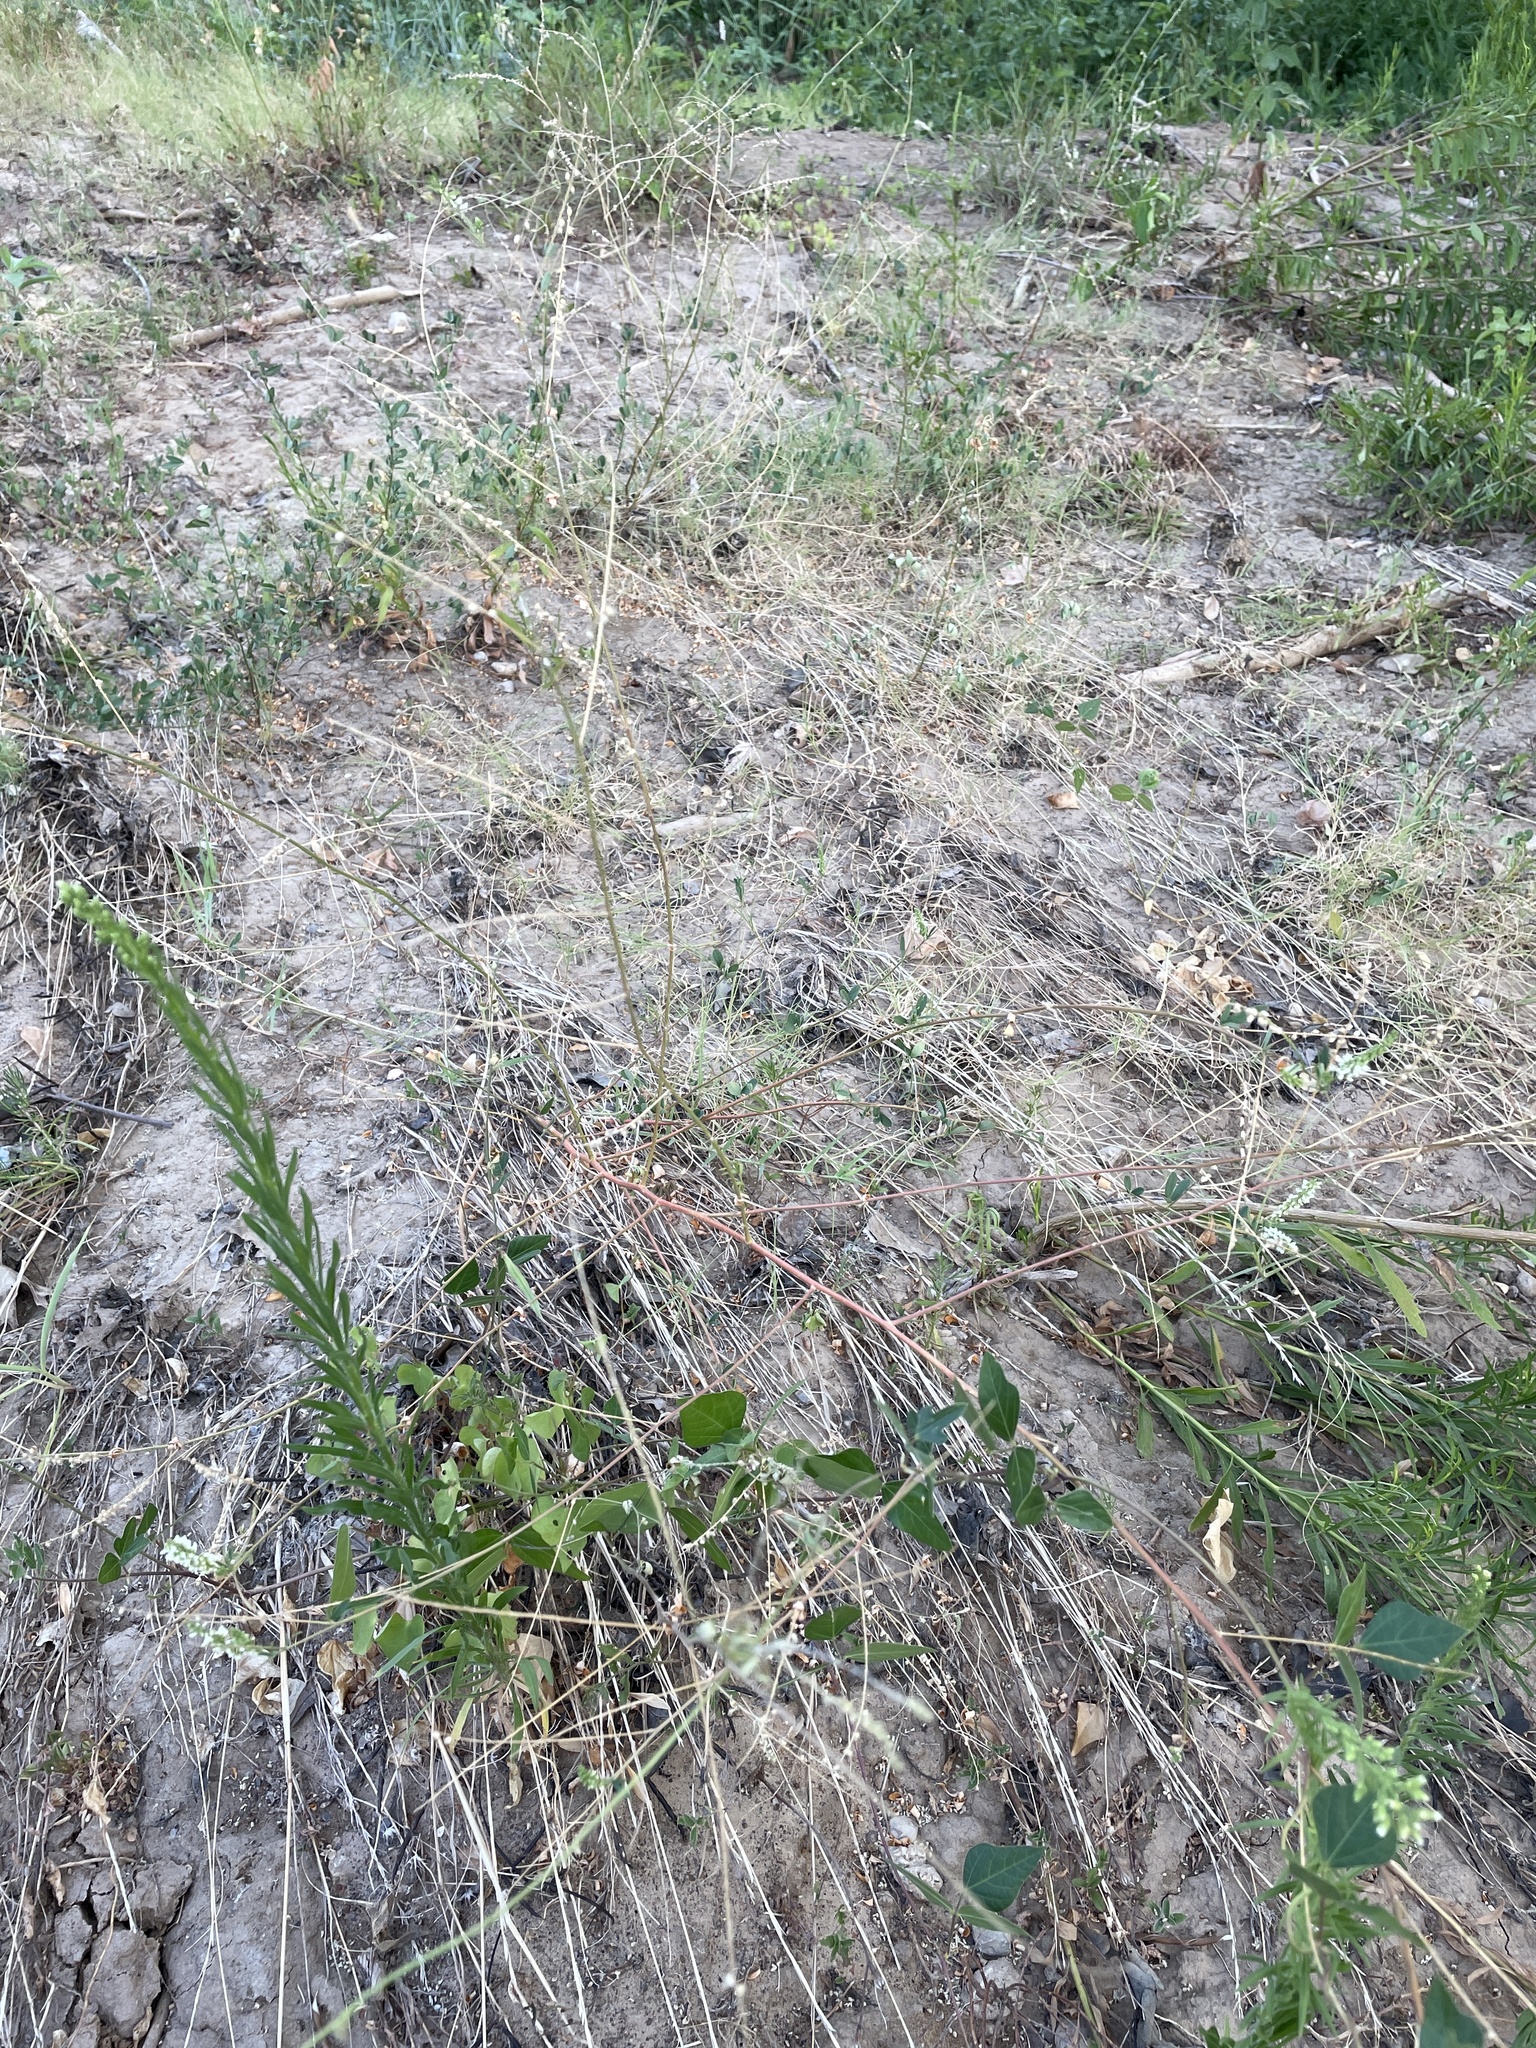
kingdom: Plantae
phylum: Tracheophyta
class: Magnoliopsida
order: Fabales
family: Fabaceae
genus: Melilotus
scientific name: Melilotus albus
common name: White melilot
